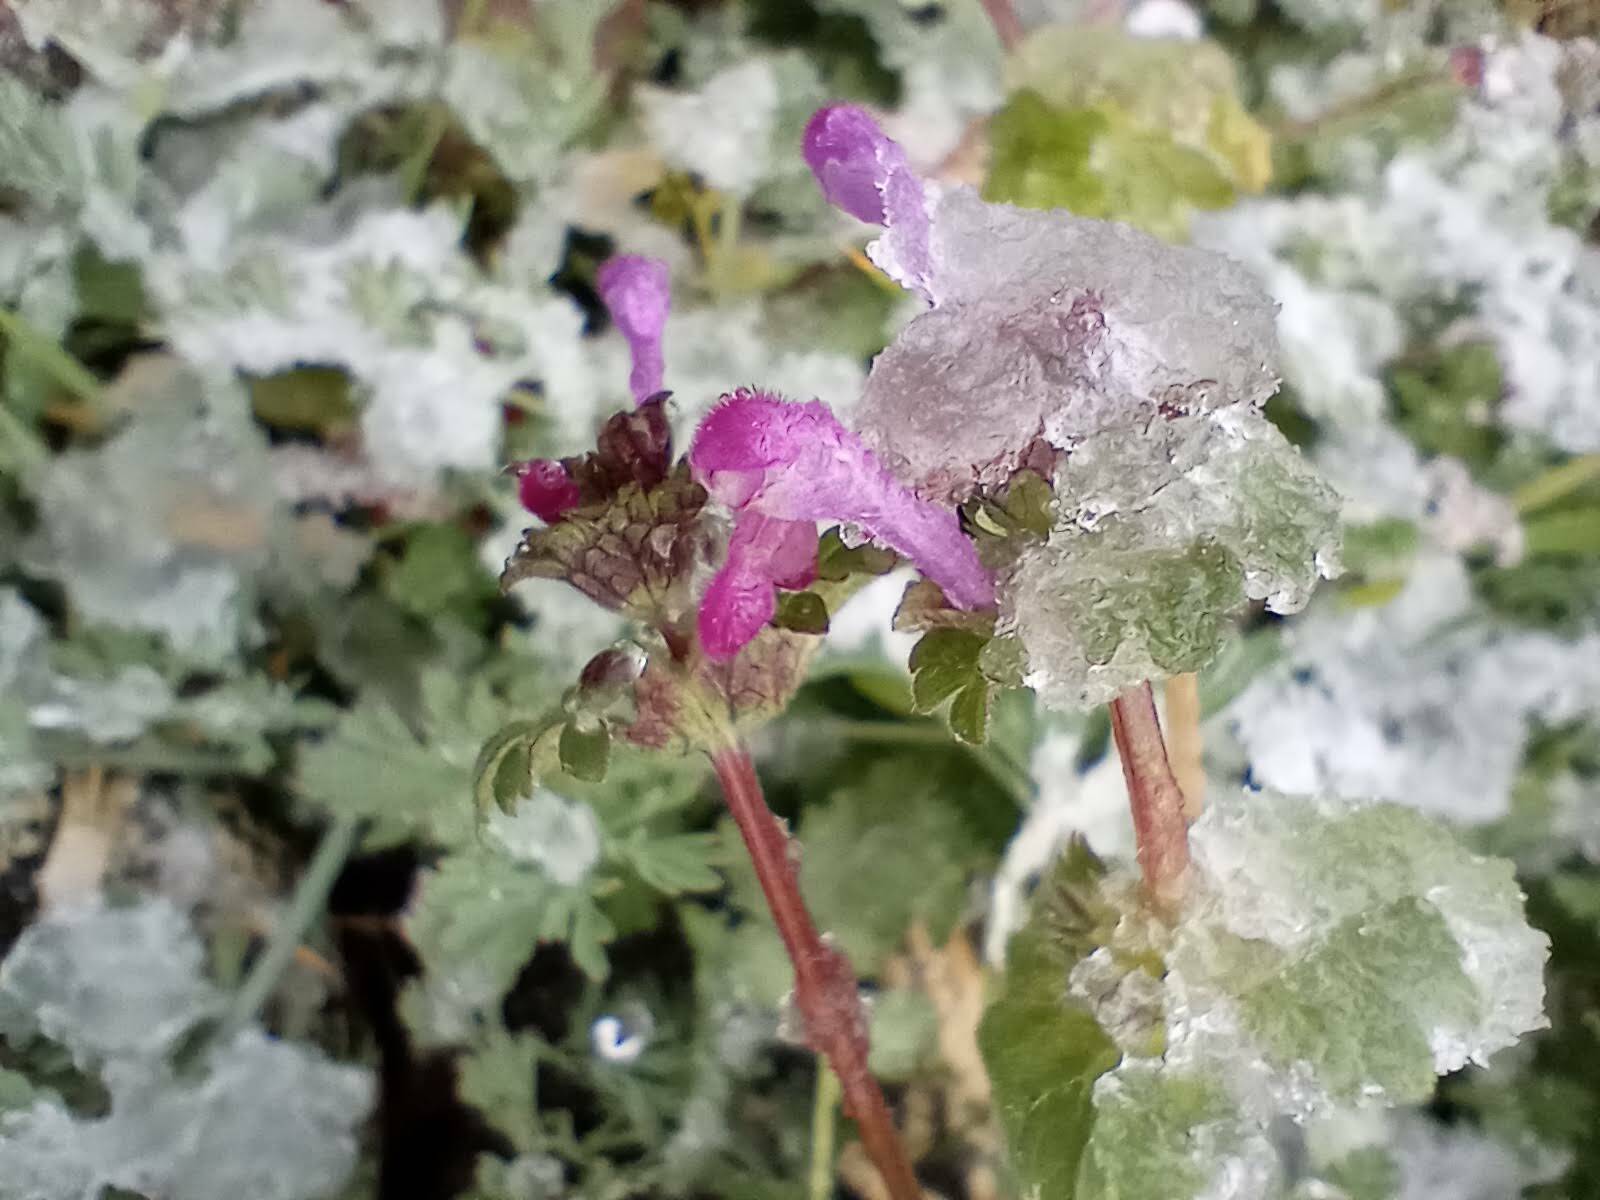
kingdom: Plantae
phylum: Tracheophyta
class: Magnoliopsida
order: Lamiales
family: Lamiaceae
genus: Lamium
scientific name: Lamium amplexicaule
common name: Henbit dead-nettle
